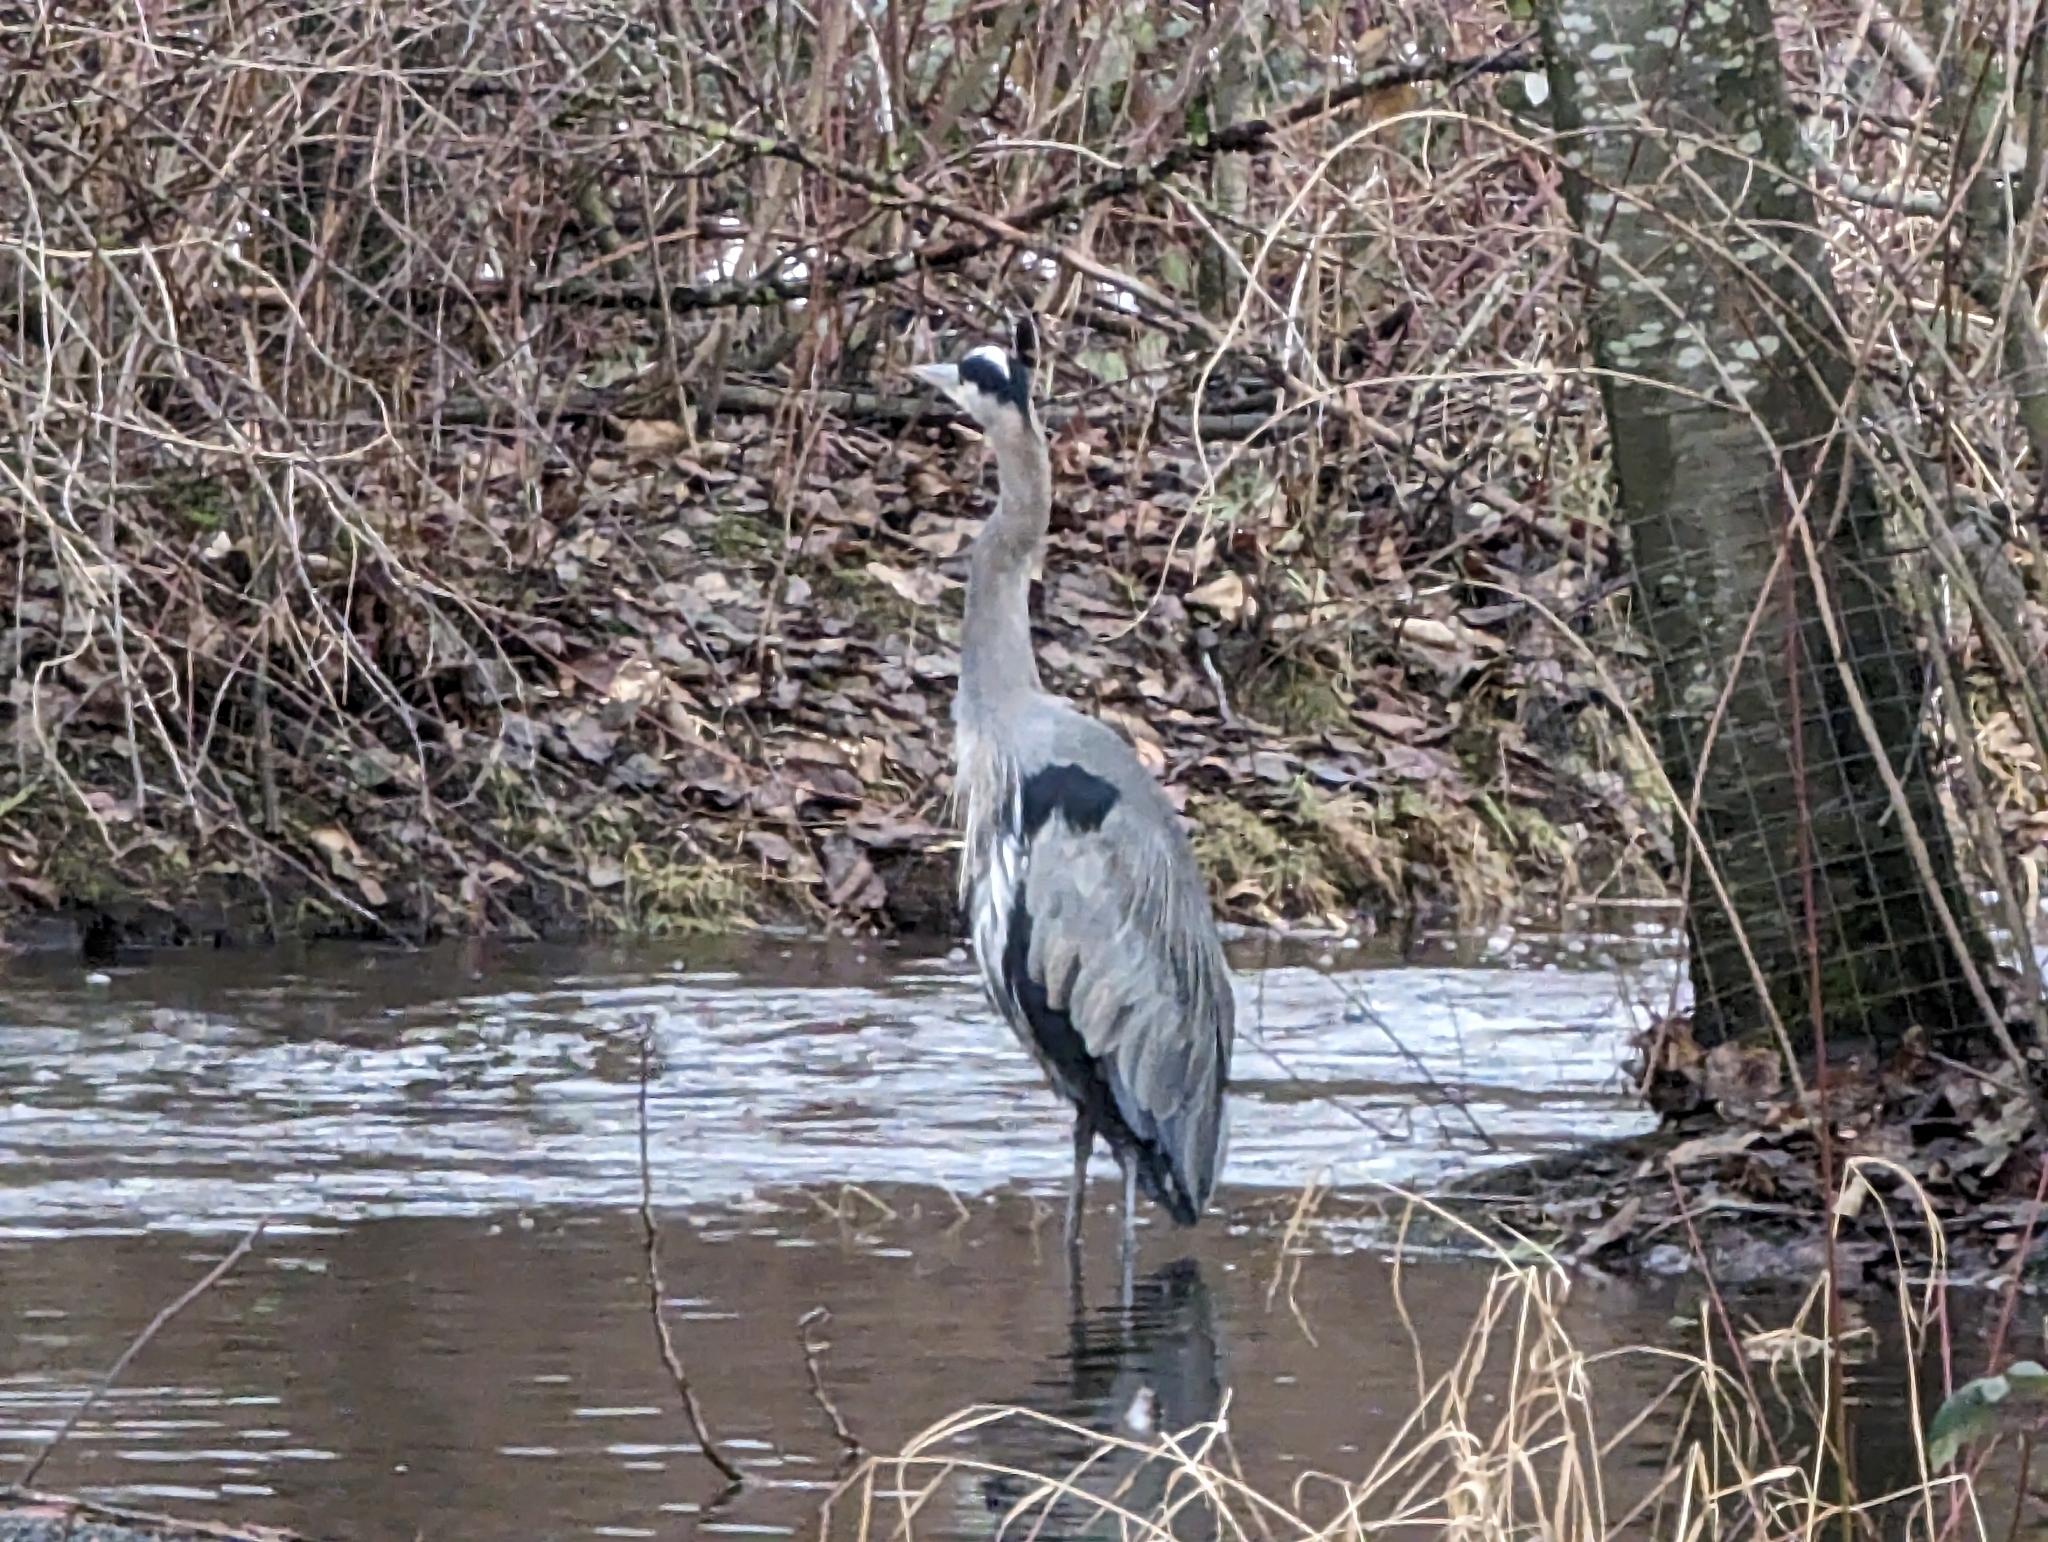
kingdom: Animalia
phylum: Chordata
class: Aves
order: Pelecaniformes
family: Ardeidae
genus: Ardea
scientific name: Ardea herodias
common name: Great blue heron
